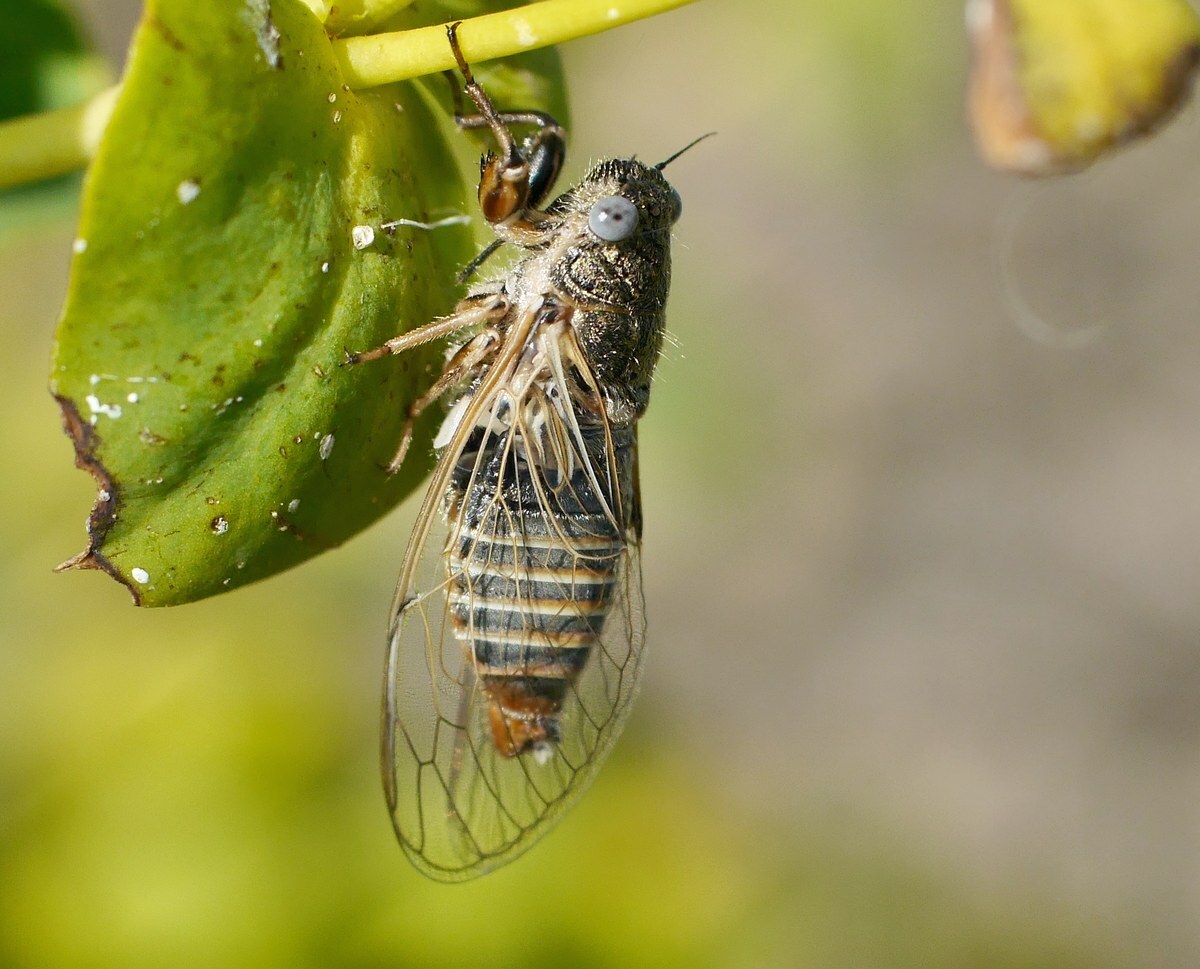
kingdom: Animalia
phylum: Arthropoda
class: Insecta
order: Hemiptera
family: Cicadidae
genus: Oligoglena
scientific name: Oligoglena tibialis
